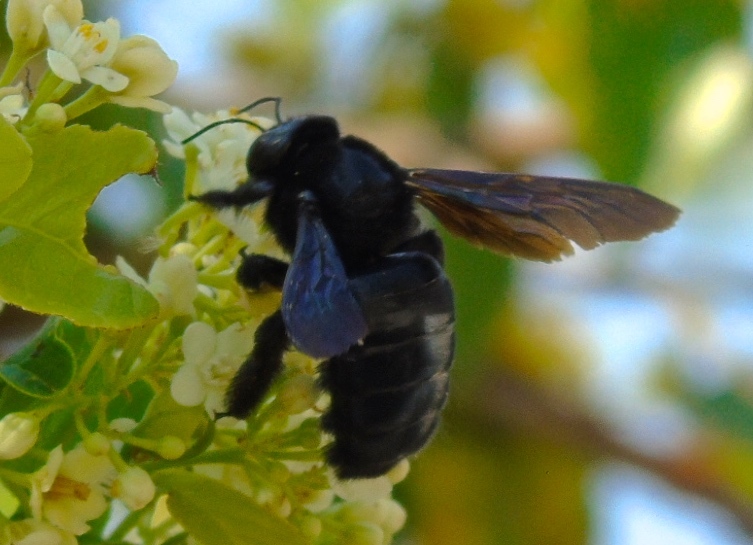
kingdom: Animalia
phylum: Arthropoda
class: Insecta
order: Hymenoptera
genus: Neoxylocopa
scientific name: Neoxylocopa
